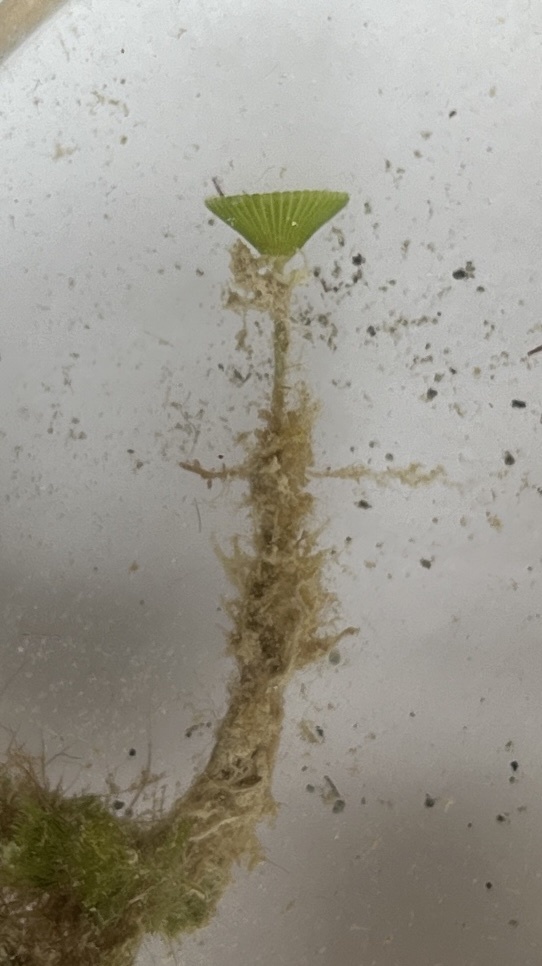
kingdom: Plantae
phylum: Chlorophyta
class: Ulvophyceae
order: Dasycladales
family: Polyphysaceae
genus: Acetabularia
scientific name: Acetabularia crenulata
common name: White mermaid's wine glass
